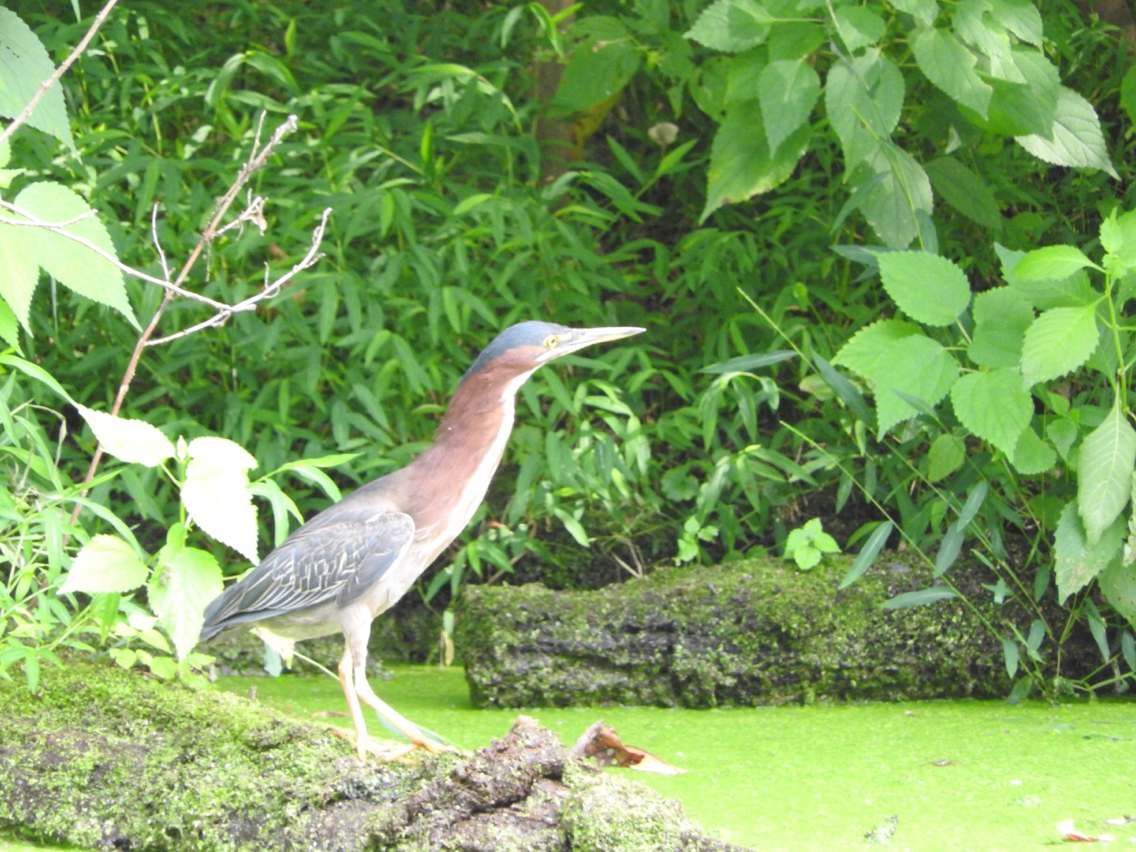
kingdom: Animalia
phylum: Chordata
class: Aves
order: Pelecaniformes
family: Ardeidae
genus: Butorides
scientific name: Butorides virescens
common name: Green heron
